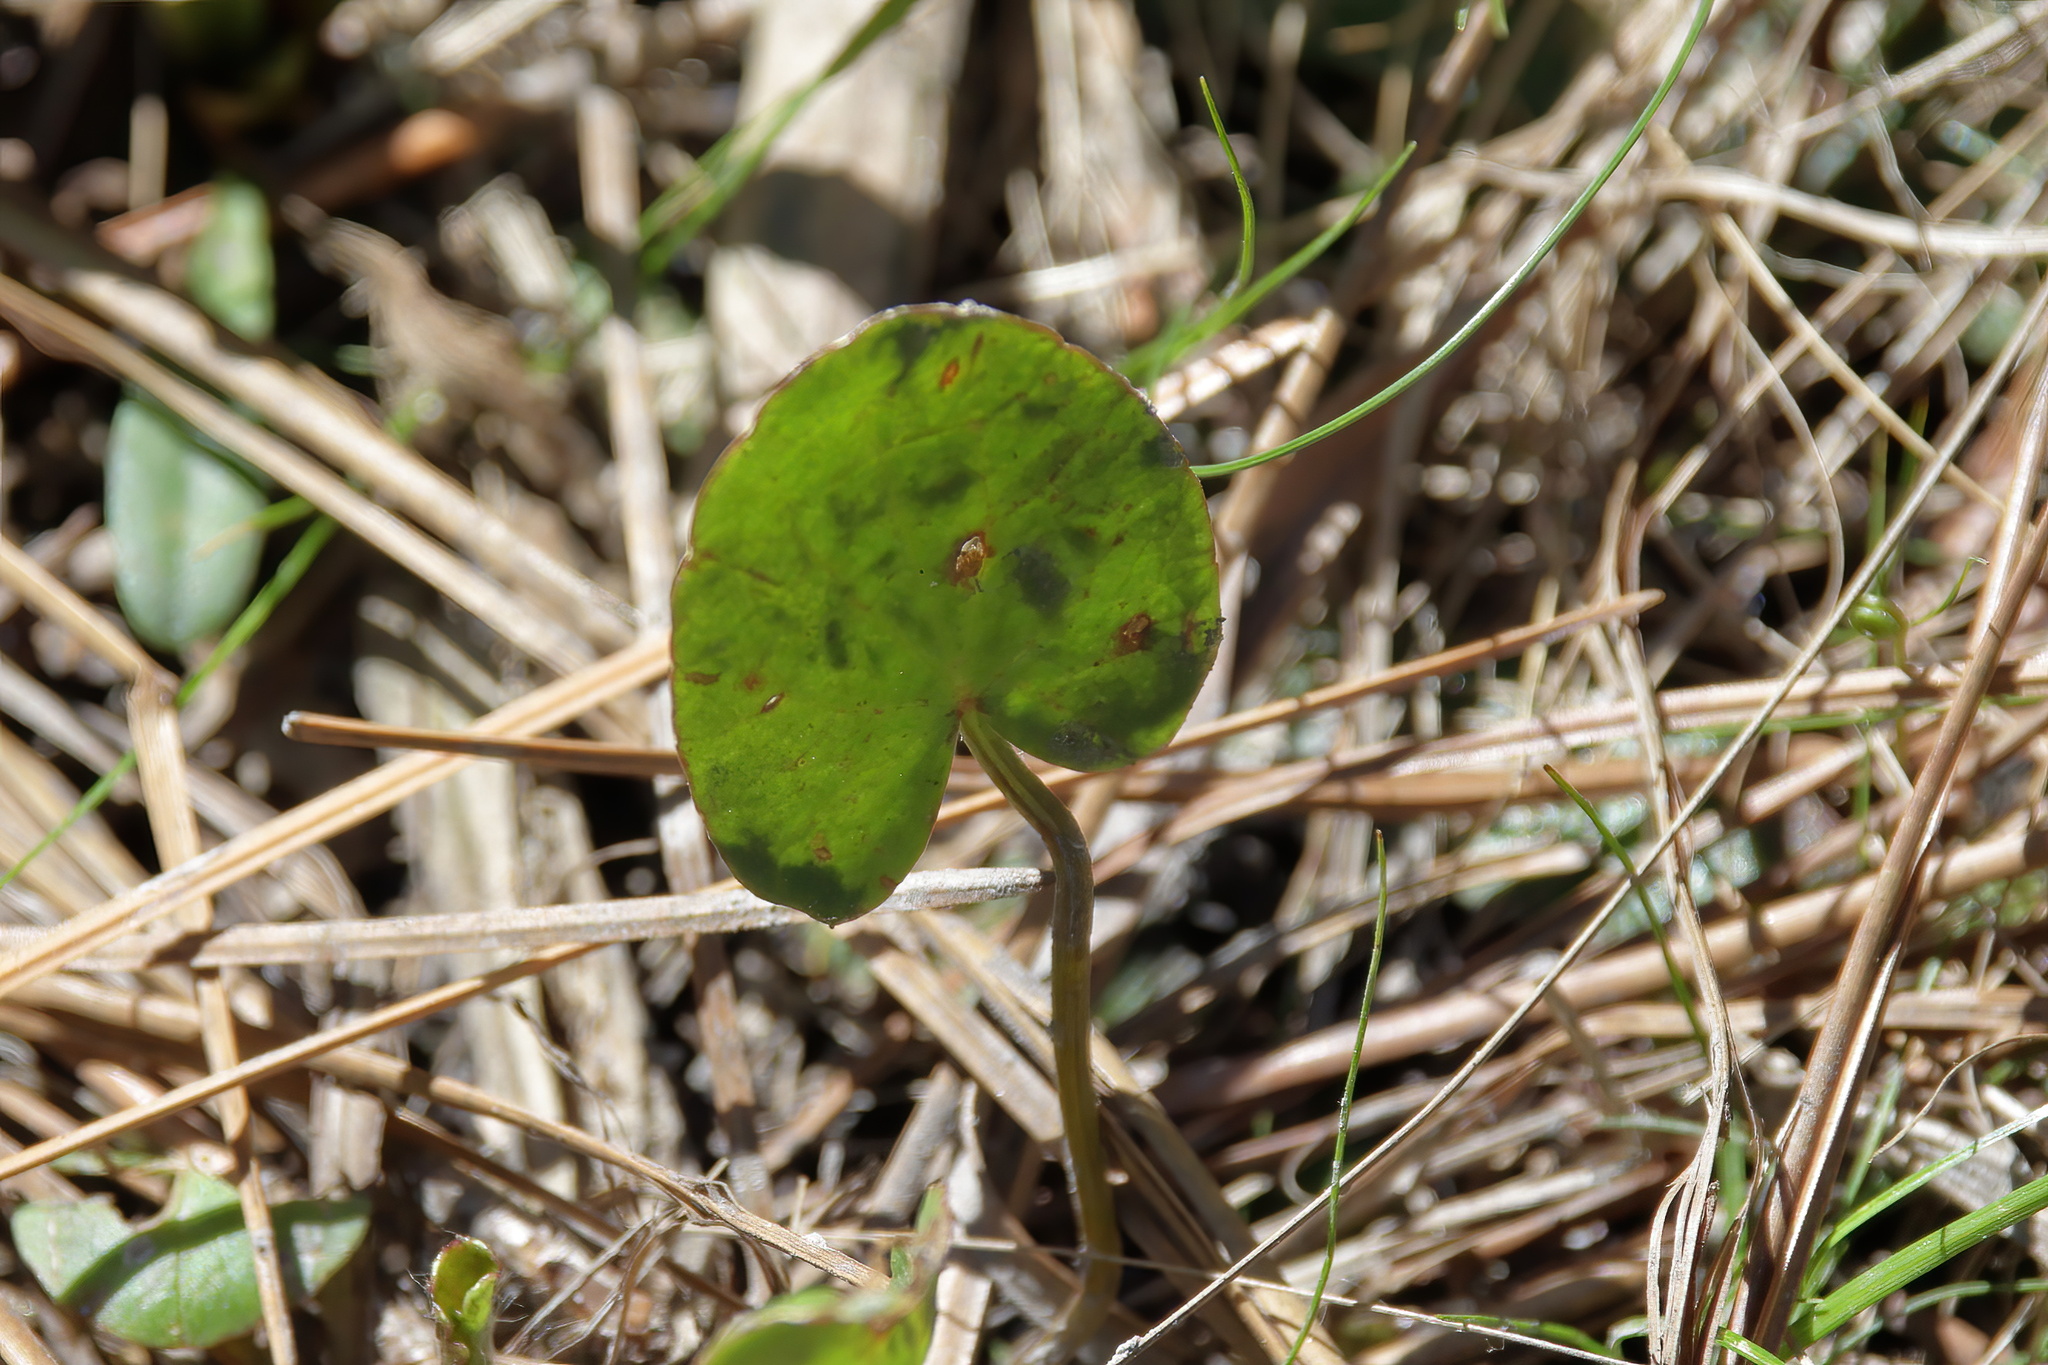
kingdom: Plantae
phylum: Tracheophyta
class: Magnoliopsida
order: Apiales
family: Apiaceae
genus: Centella
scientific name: Centella erecta
